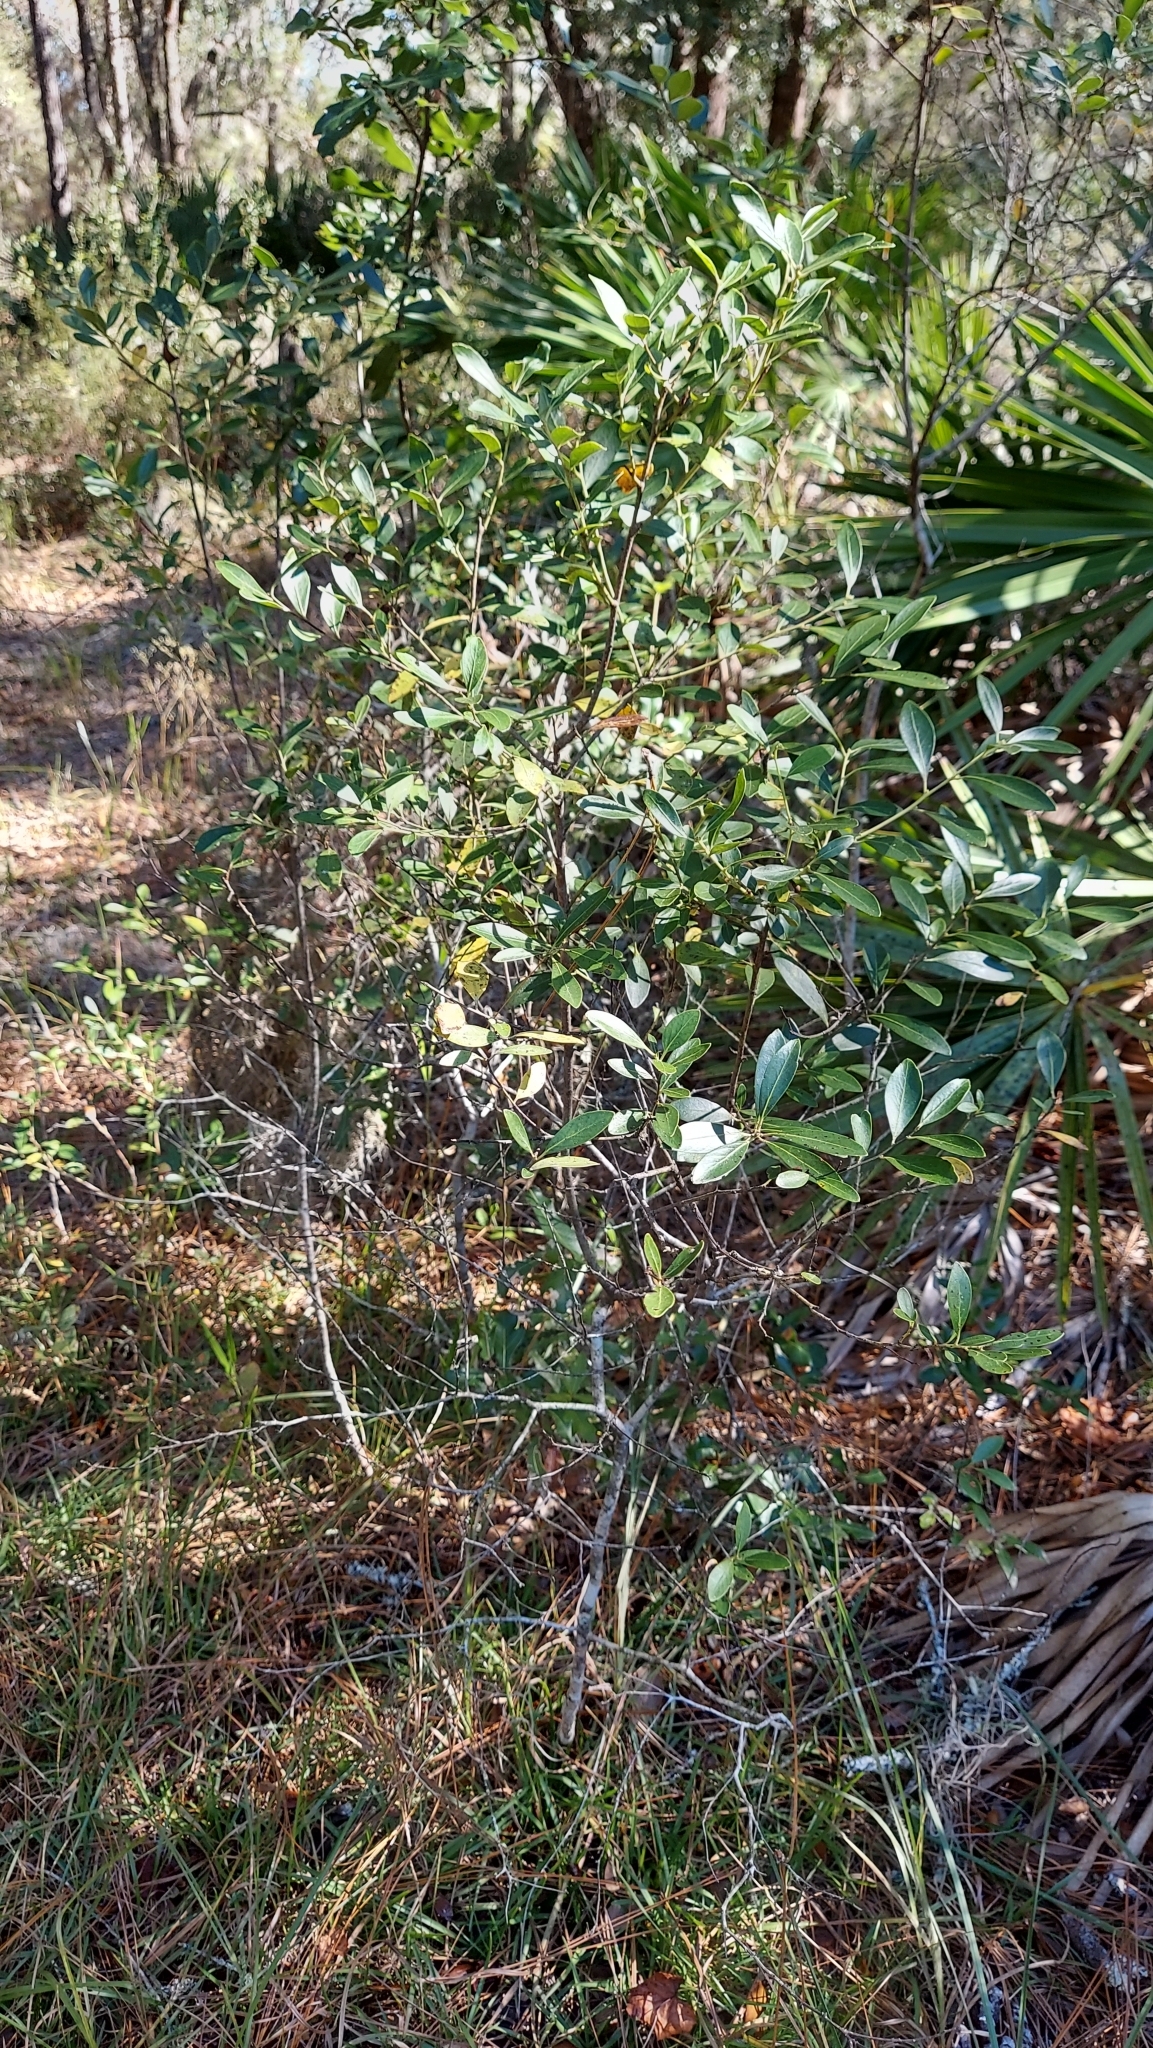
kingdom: Plantae
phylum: Tracheophyta
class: Magnoliopsida
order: Aquifoliales
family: Aquifoliaceae
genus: Ilex
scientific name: Ilex glabra
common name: Bitter gallberry
